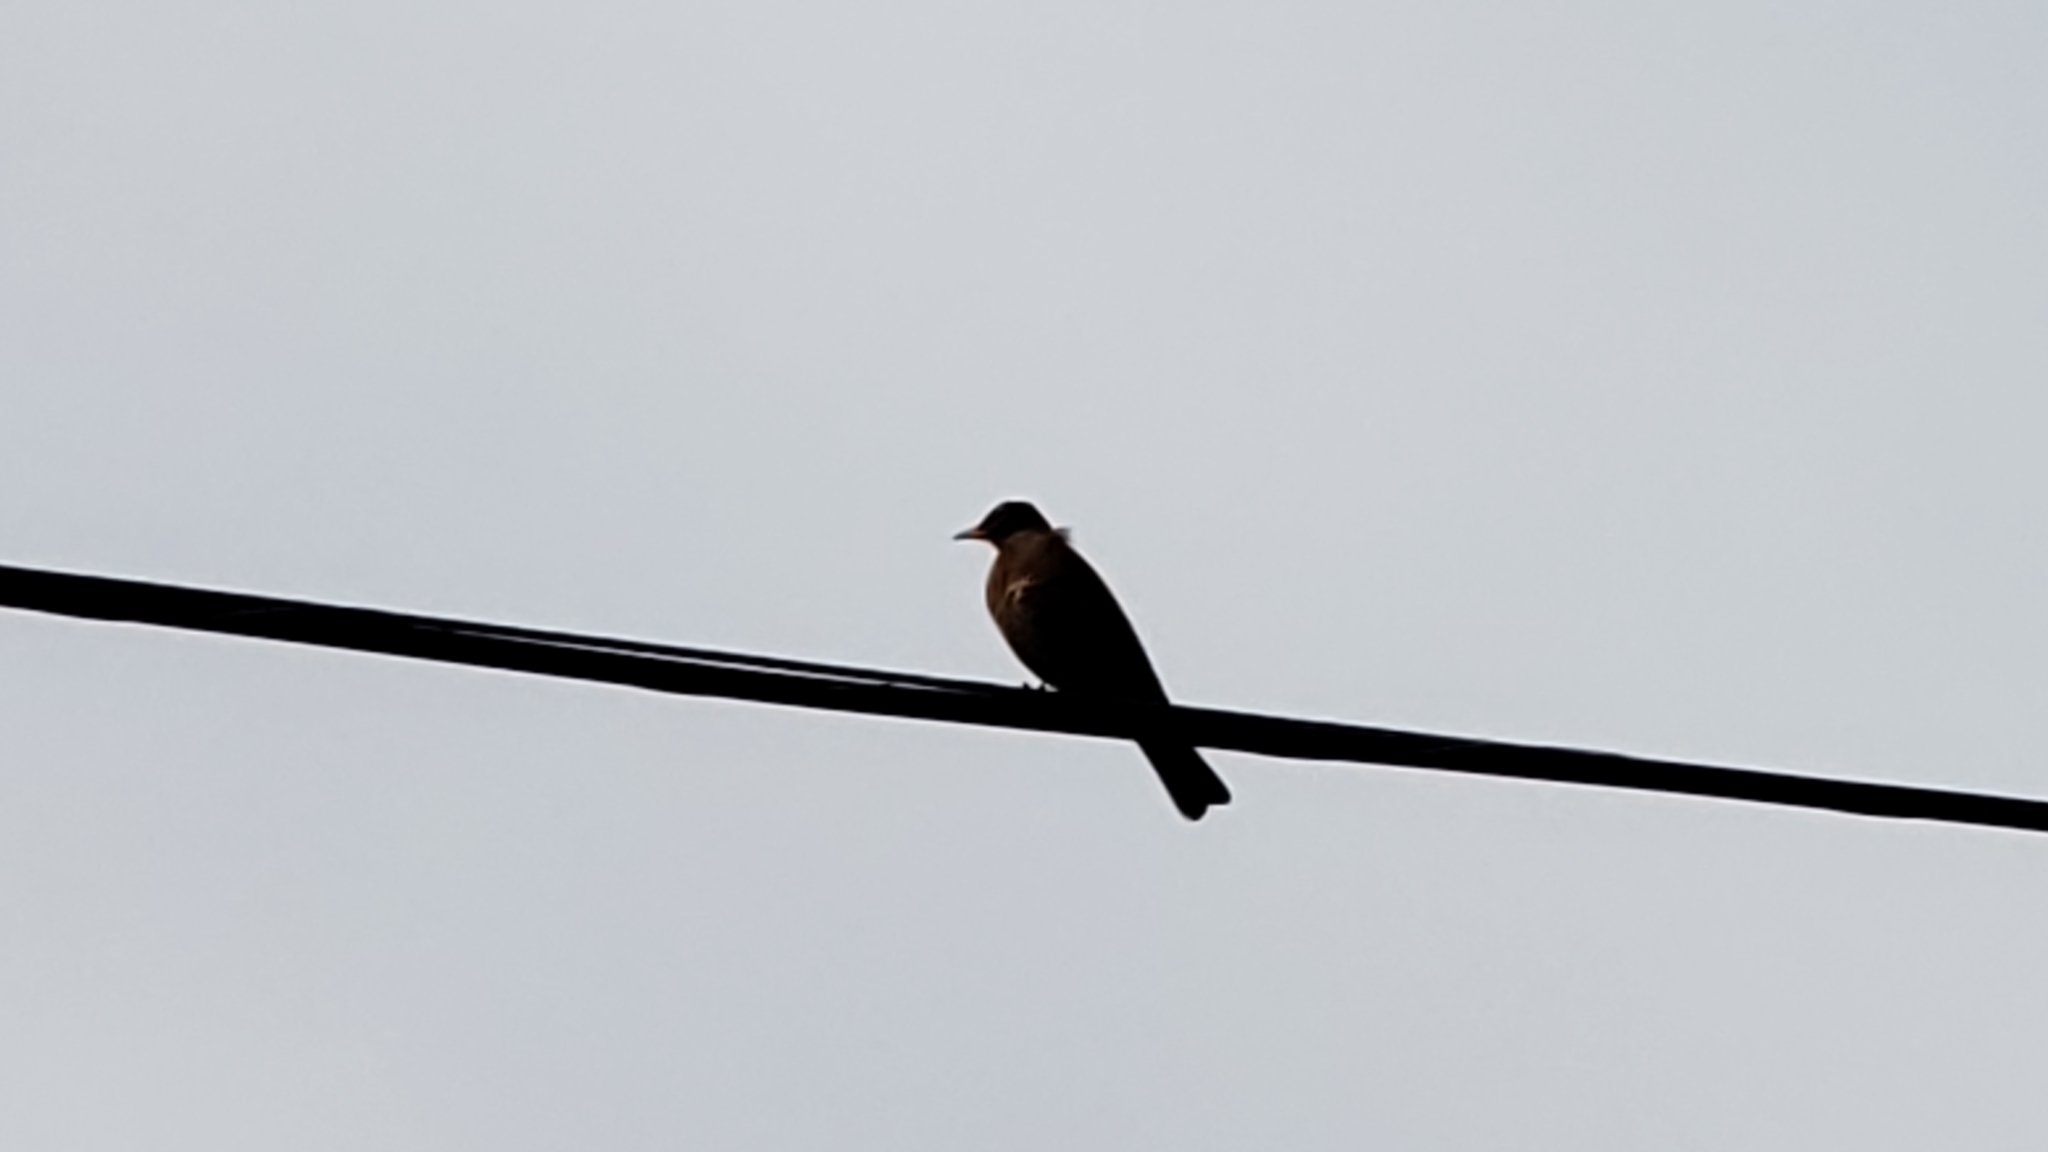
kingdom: Animalia
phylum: Chordata
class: Aves
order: Passeriformes
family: Turdidae
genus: Turdus
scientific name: Turdus migratorius
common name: American robin
